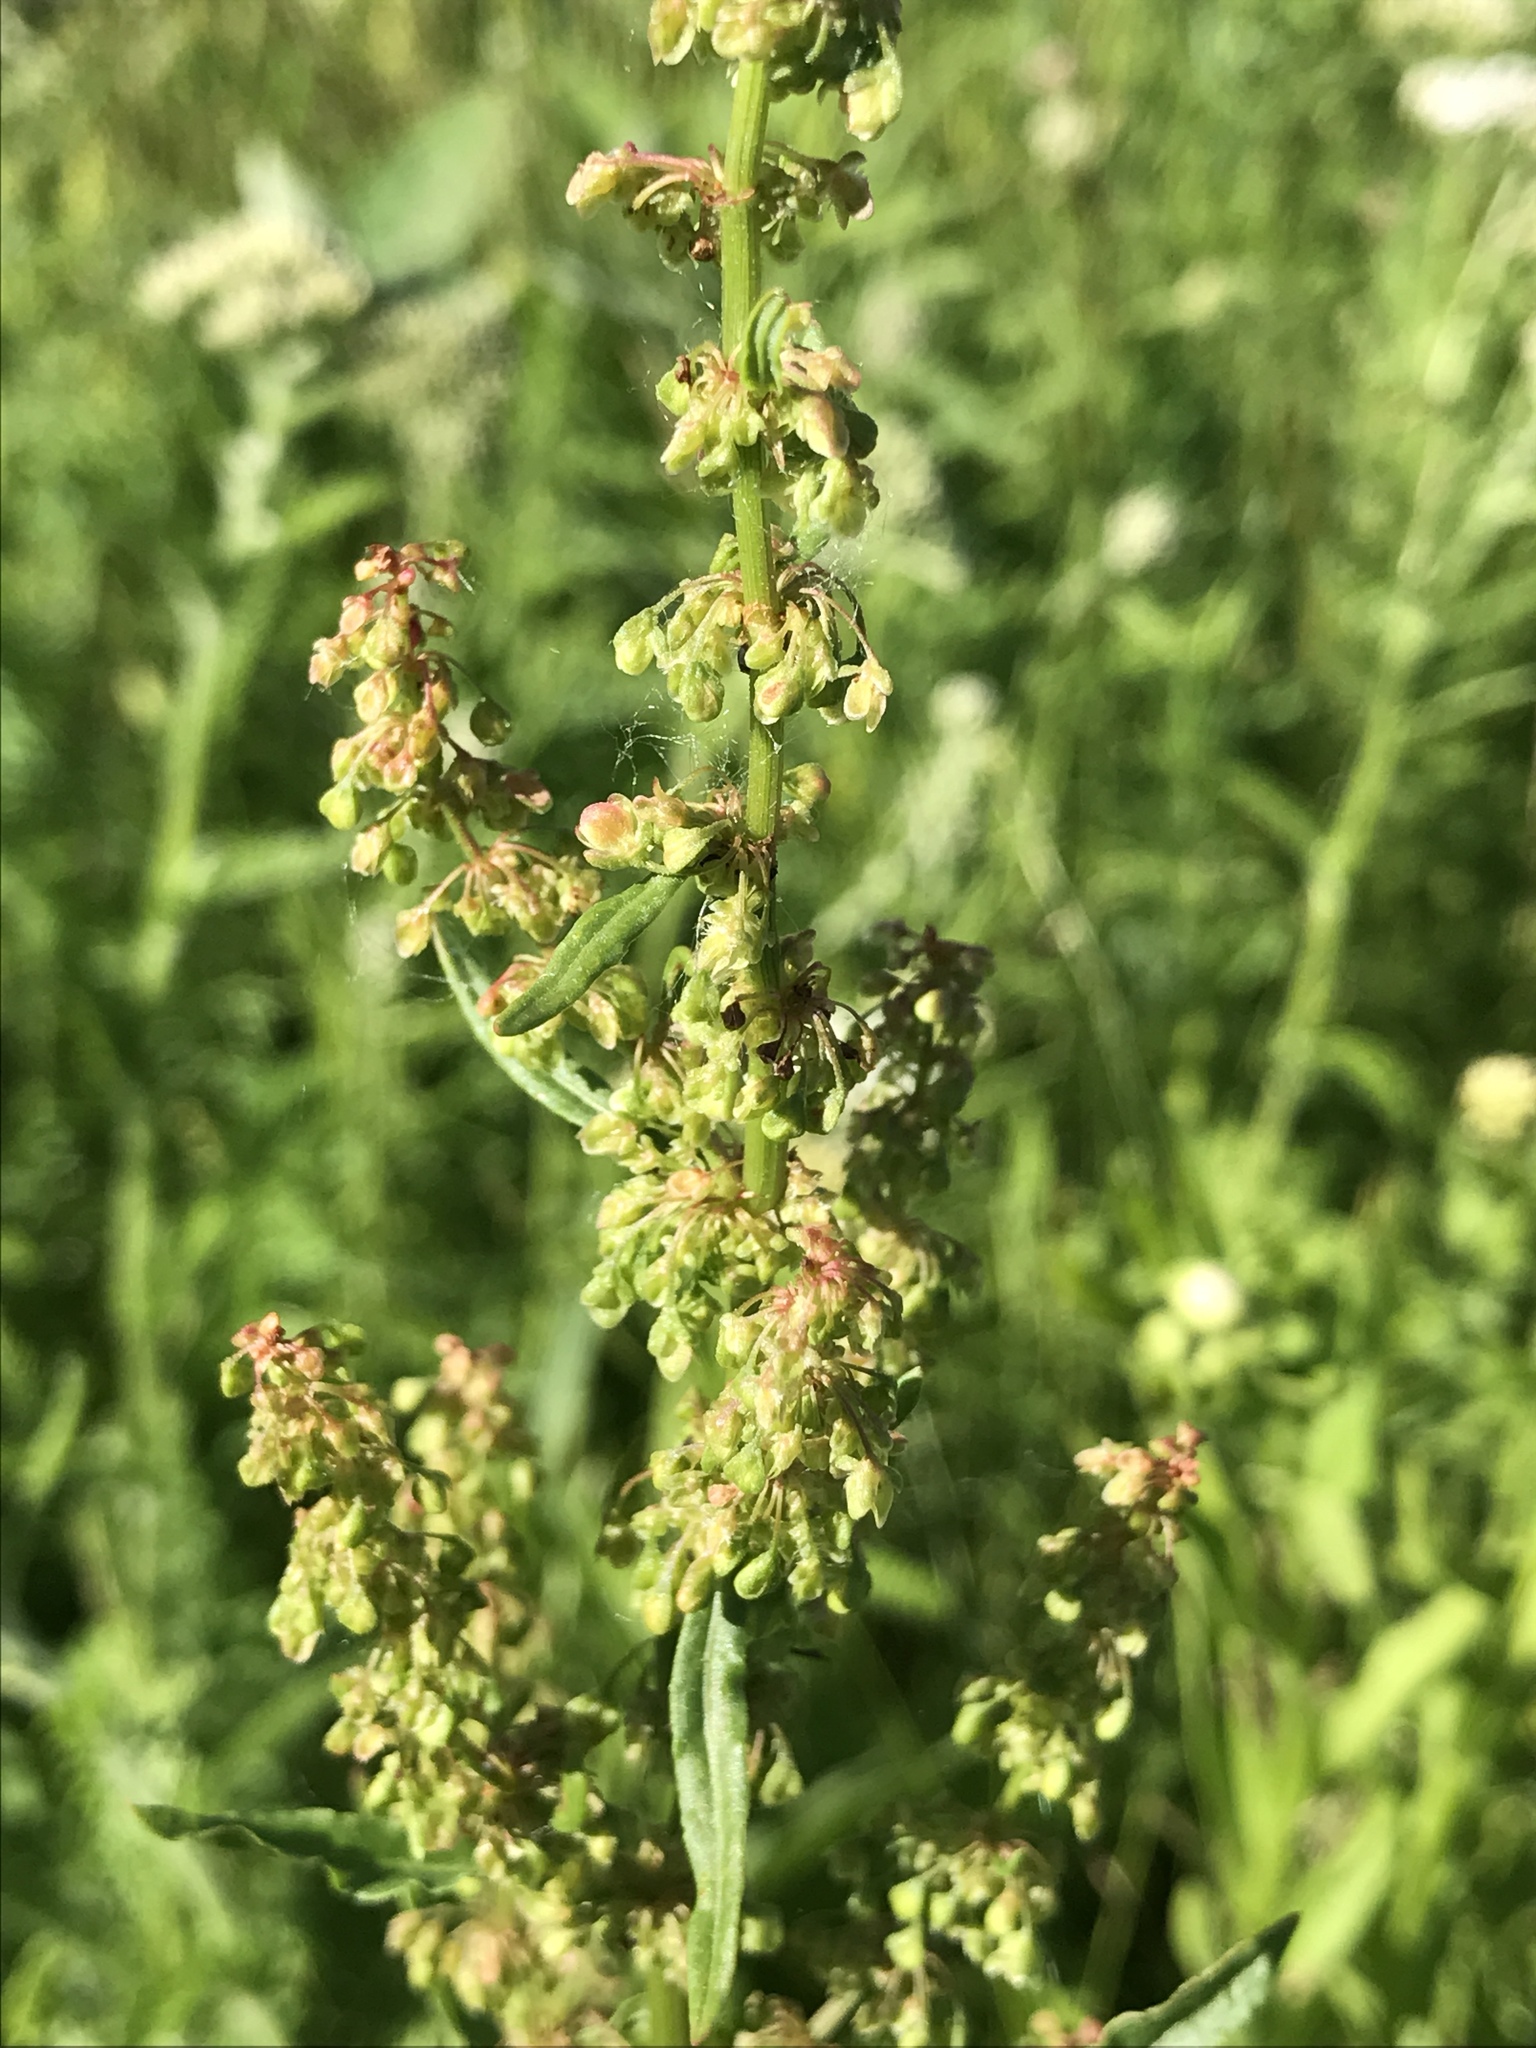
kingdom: Plantae
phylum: Tracheophyta
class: Magnoliopsida
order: Caryophyllales
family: Polygonaceae
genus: Rumex
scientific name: Rumex crispus
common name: Curled dock
